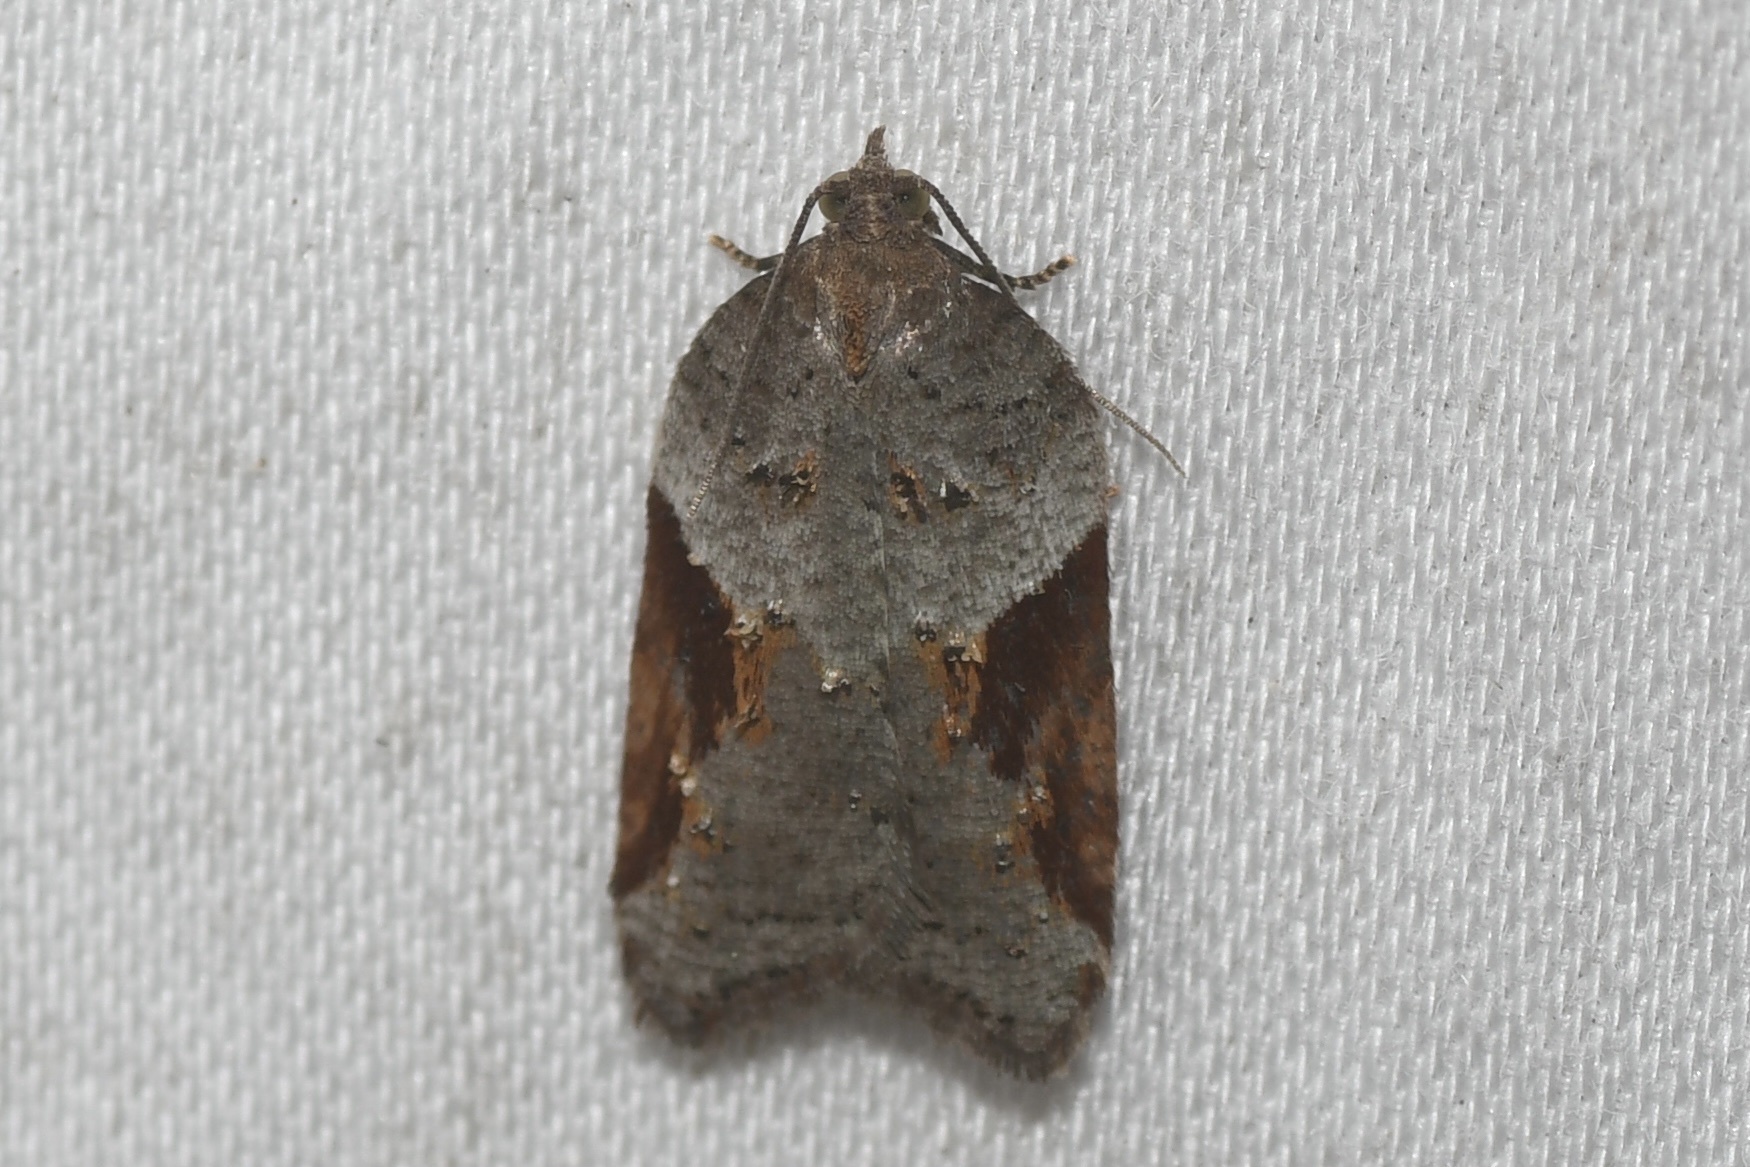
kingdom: Animalia
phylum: Arthropoda
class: Insecta
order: Lepidoptera
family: Tortricidae
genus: Acleris
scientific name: Acleris macdunnoughi
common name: Macdunnough's acleris
